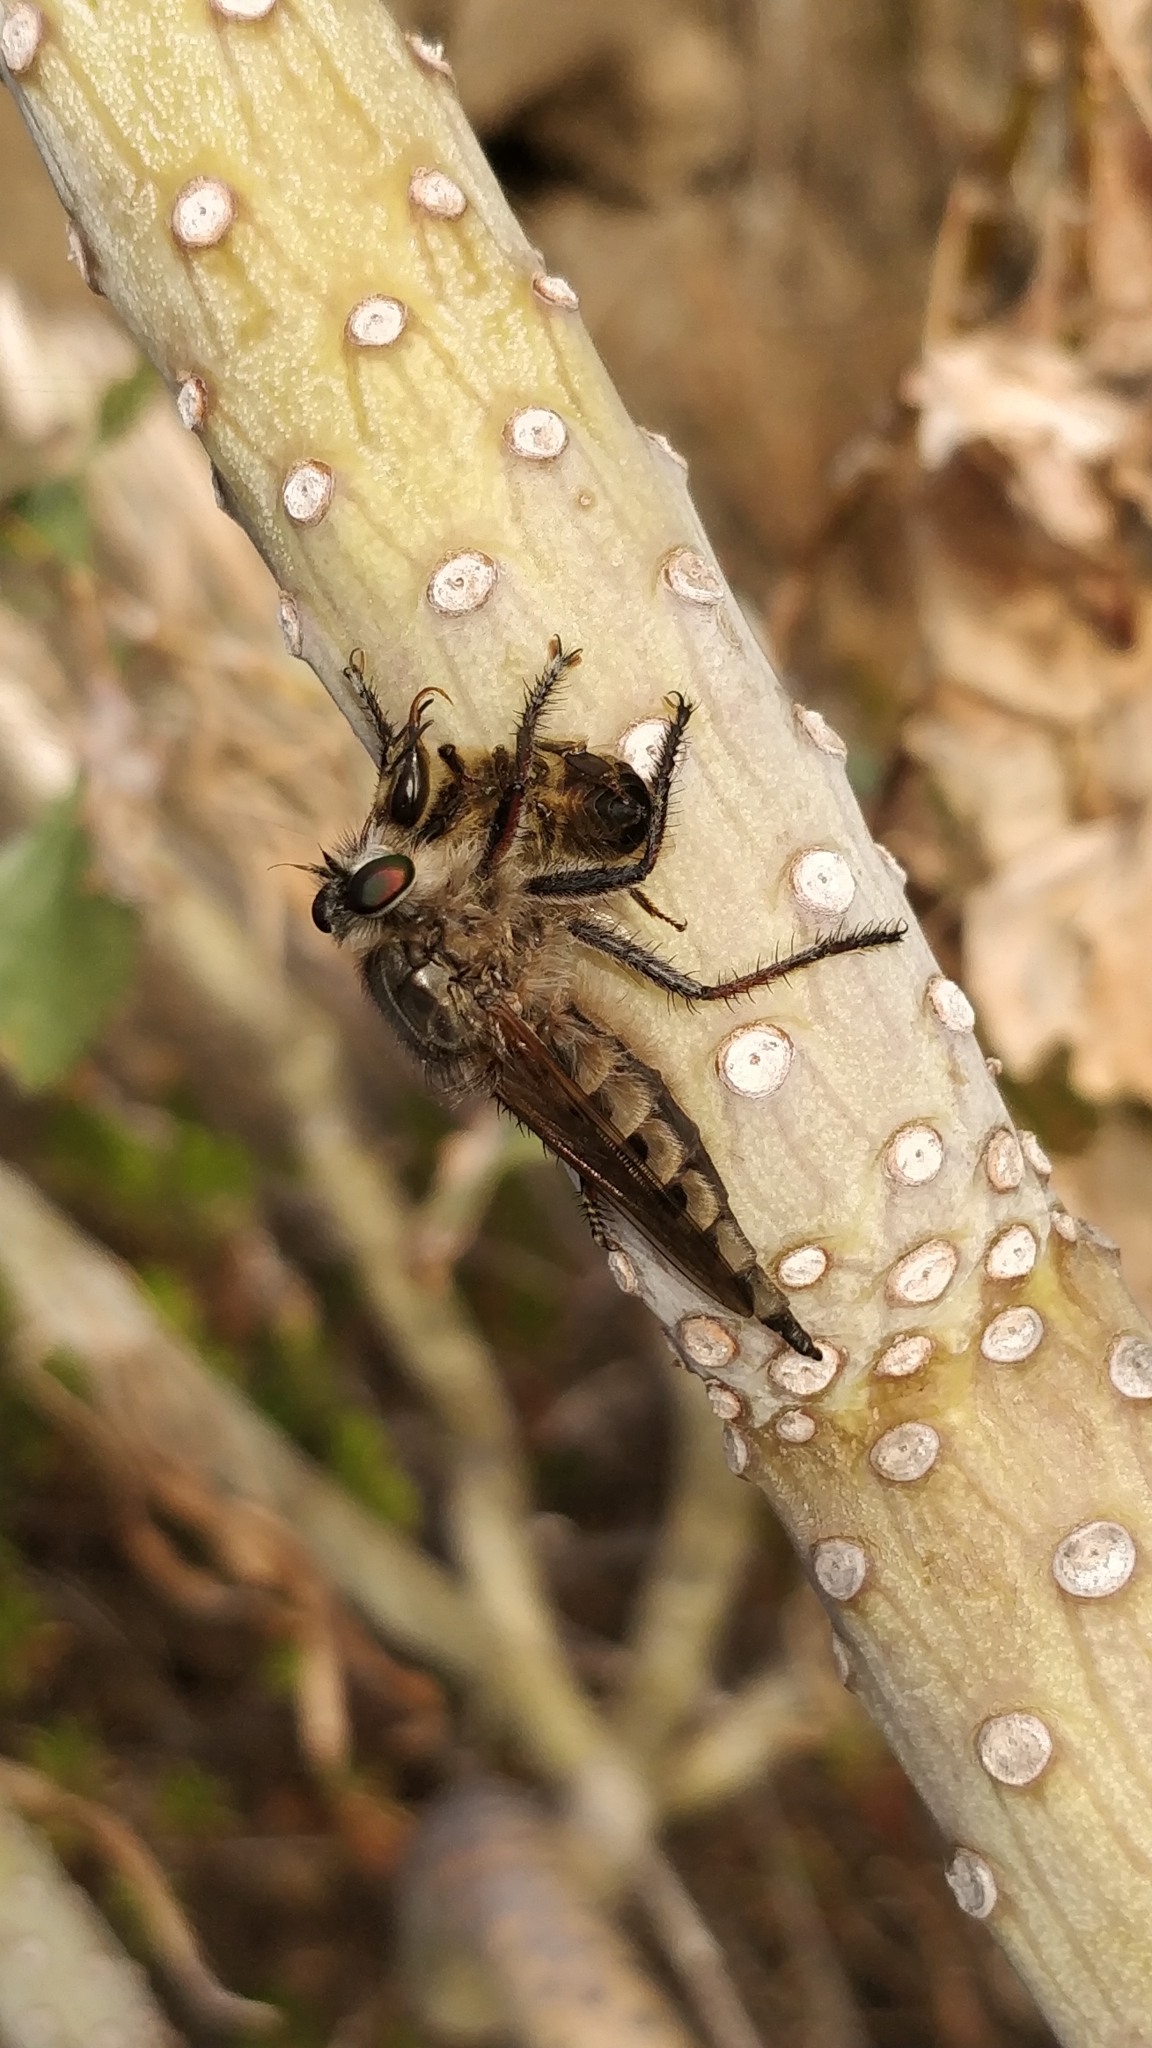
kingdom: Animalia
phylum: Arthropoda
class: Insecta
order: Diptera
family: Asilidae
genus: Promachus
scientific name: Promachus vexator
